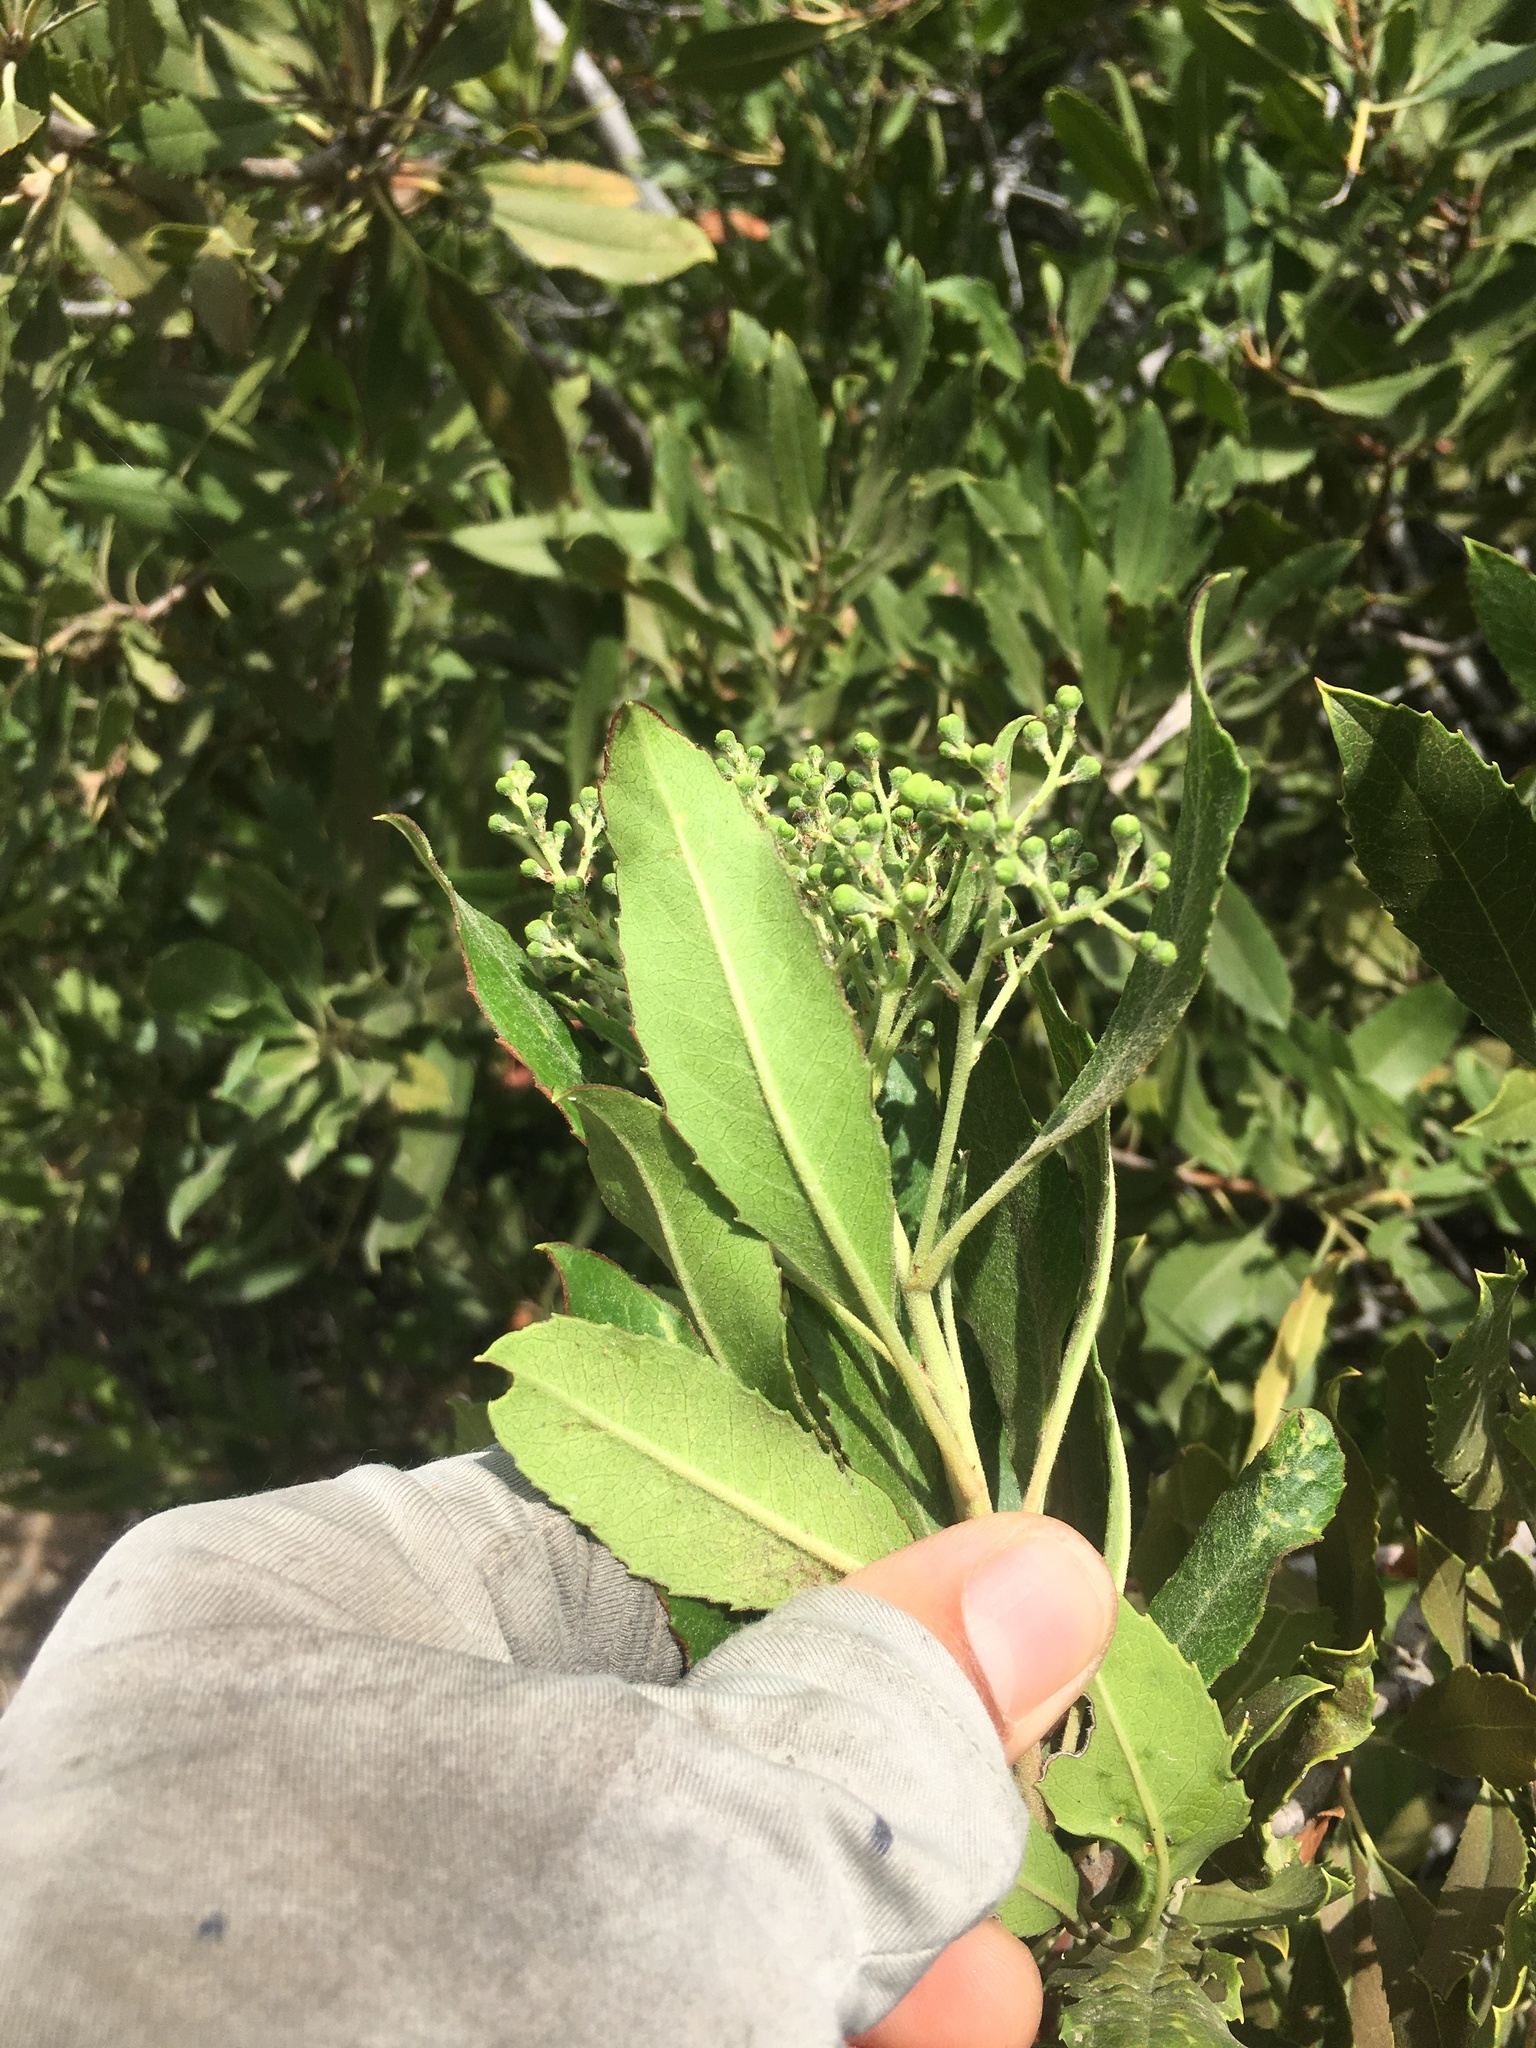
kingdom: Plantae
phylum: Tracheophyta
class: Magnoliopsida
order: Rosales
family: Rosaceae
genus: Heteromeles
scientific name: Heteromeles arbutifolia
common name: California-holly
